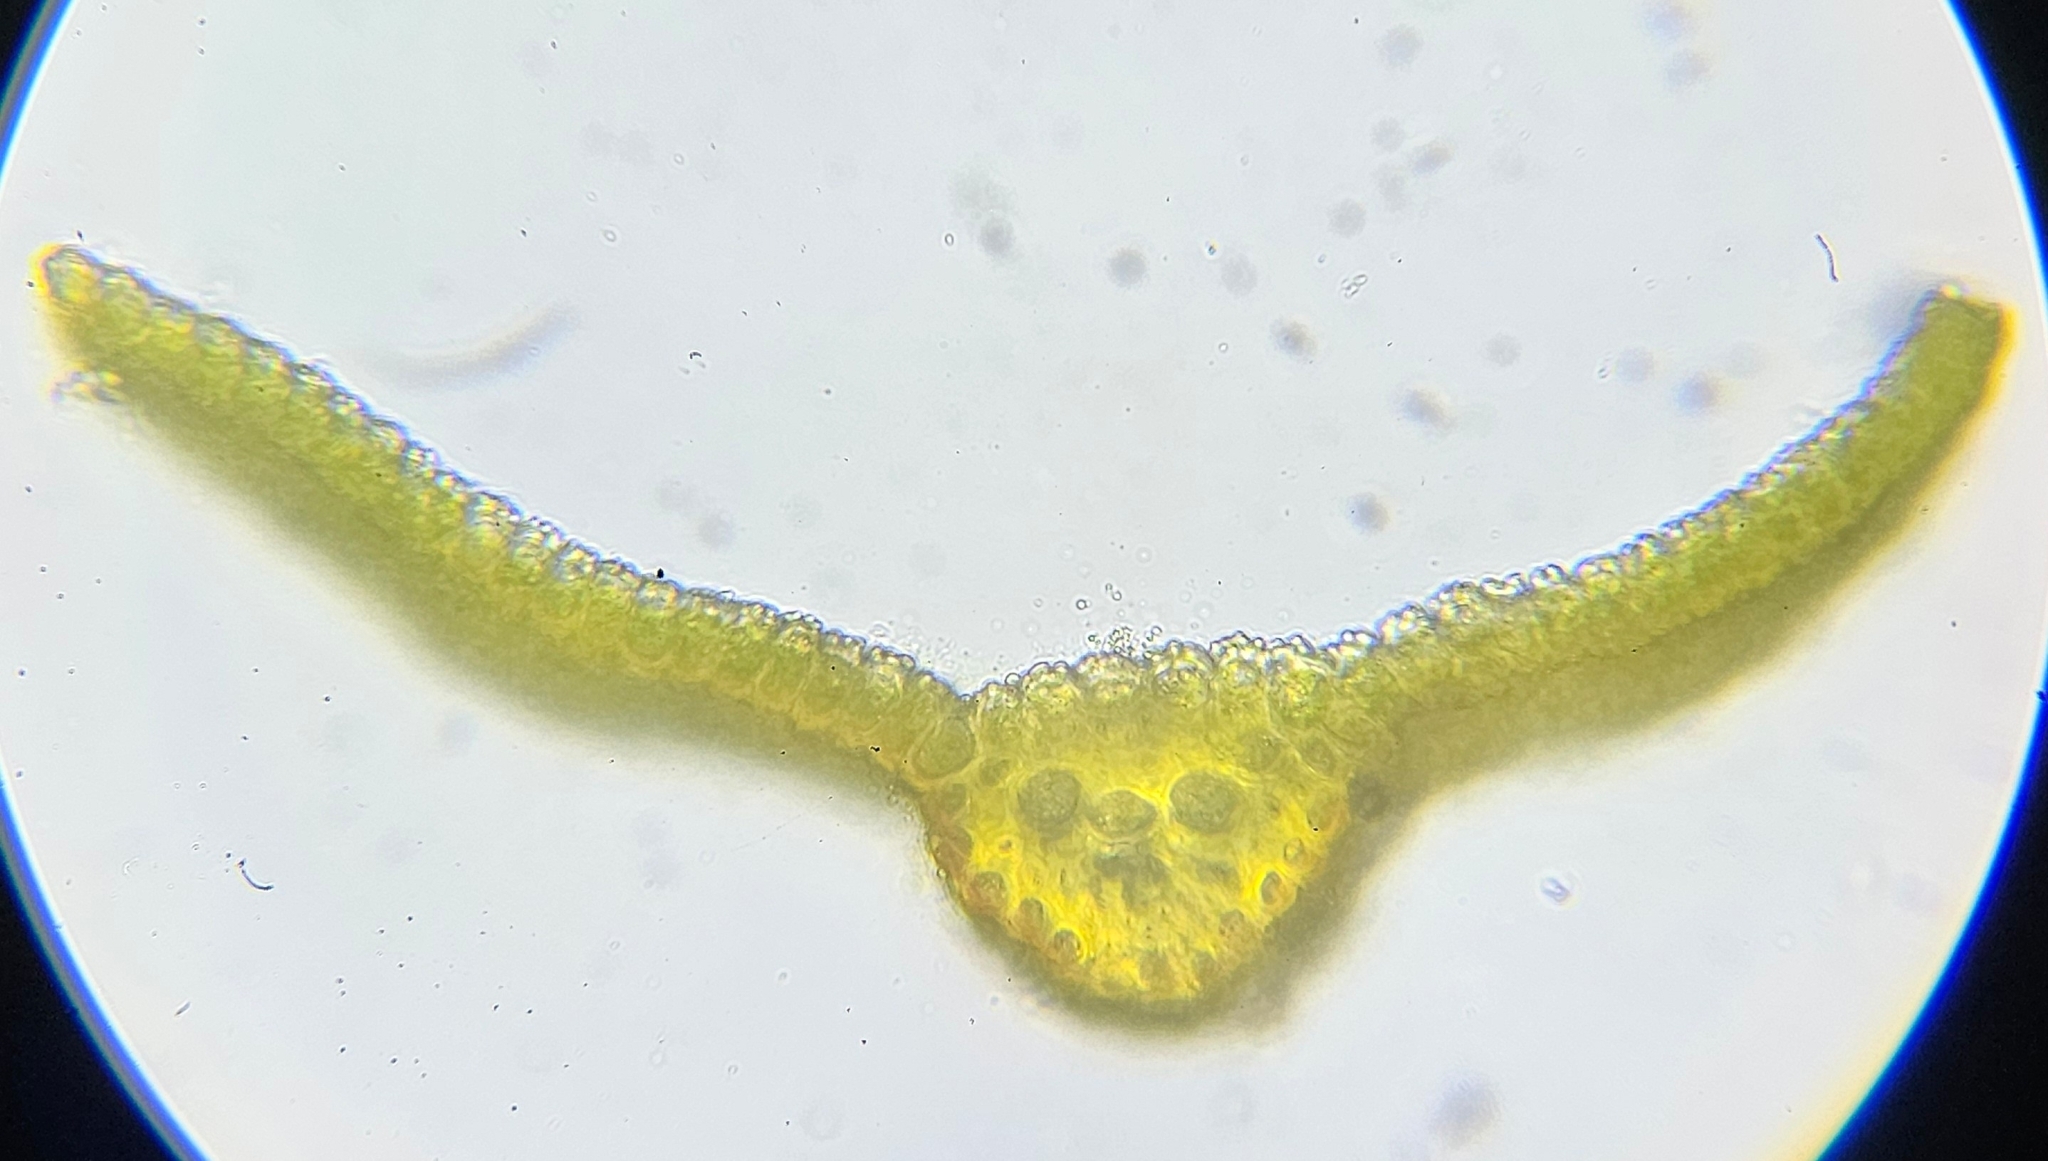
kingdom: Plantae
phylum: Bryophyta
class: Bryopsida
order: Pottiales
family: Pottiaceae
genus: Trichostomum
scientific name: Trichostomum crispulum
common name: Curly crisp-moss
